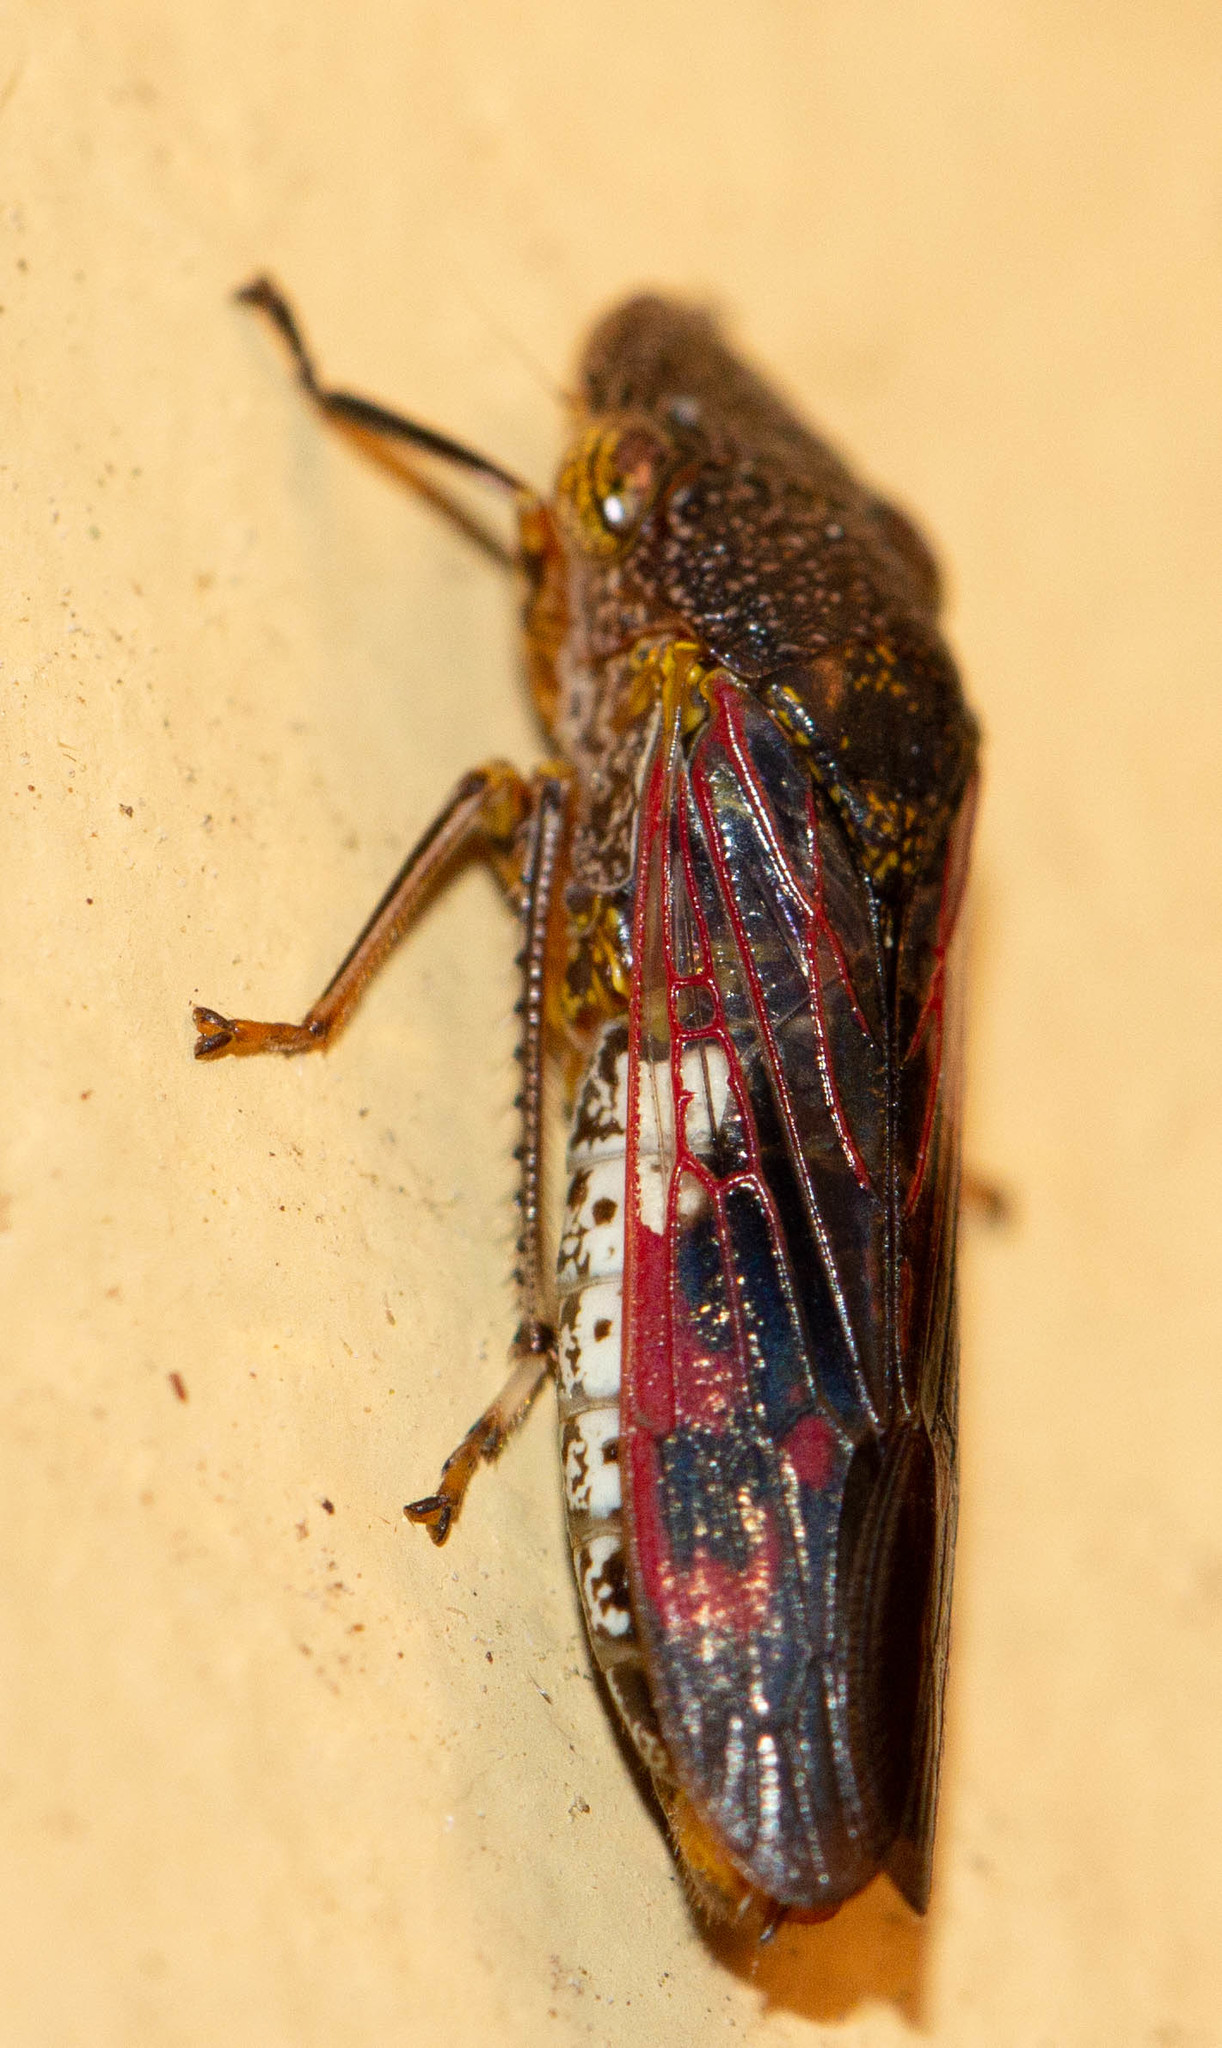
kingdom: Animalia
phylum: Arthropoda
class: Insecta
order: Hemiptera
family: Cicadellidae
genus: Homalodisca
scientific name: Homalodisca vitripennis
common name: Glassy-winged sharpshooter
